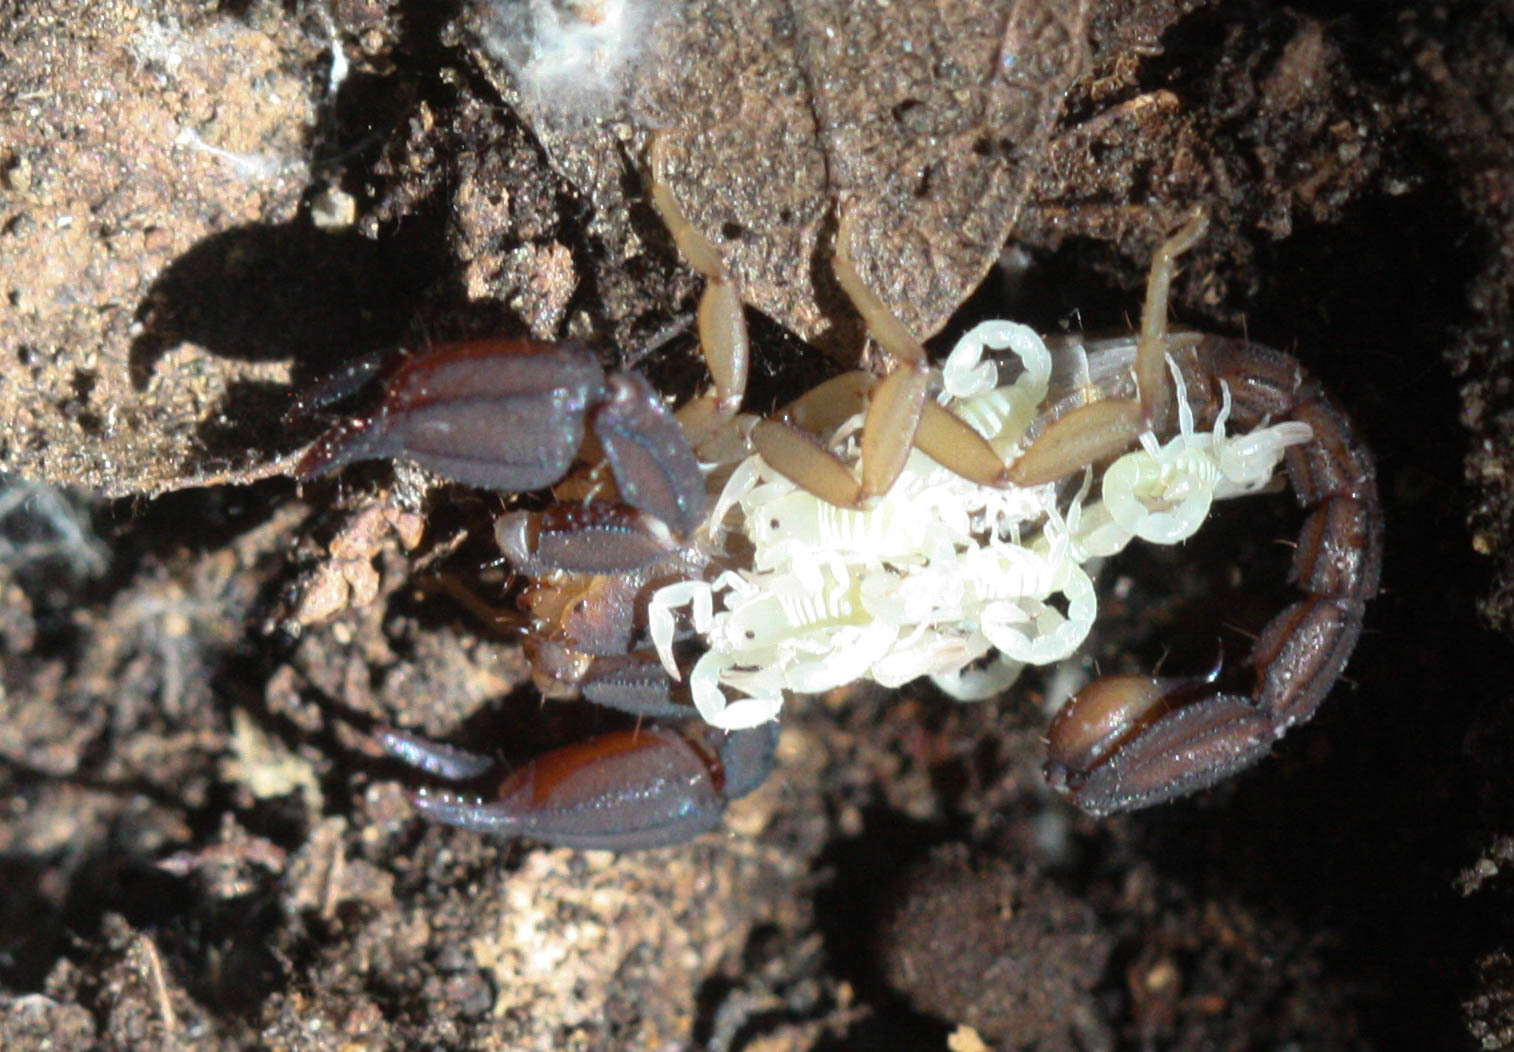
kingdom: Animalia
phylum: Arthropoda
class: Arachnida
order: Scorpiones
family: Vaejovidae
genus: Pseudouroctonus
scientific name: Pseudouroctonus santarita
